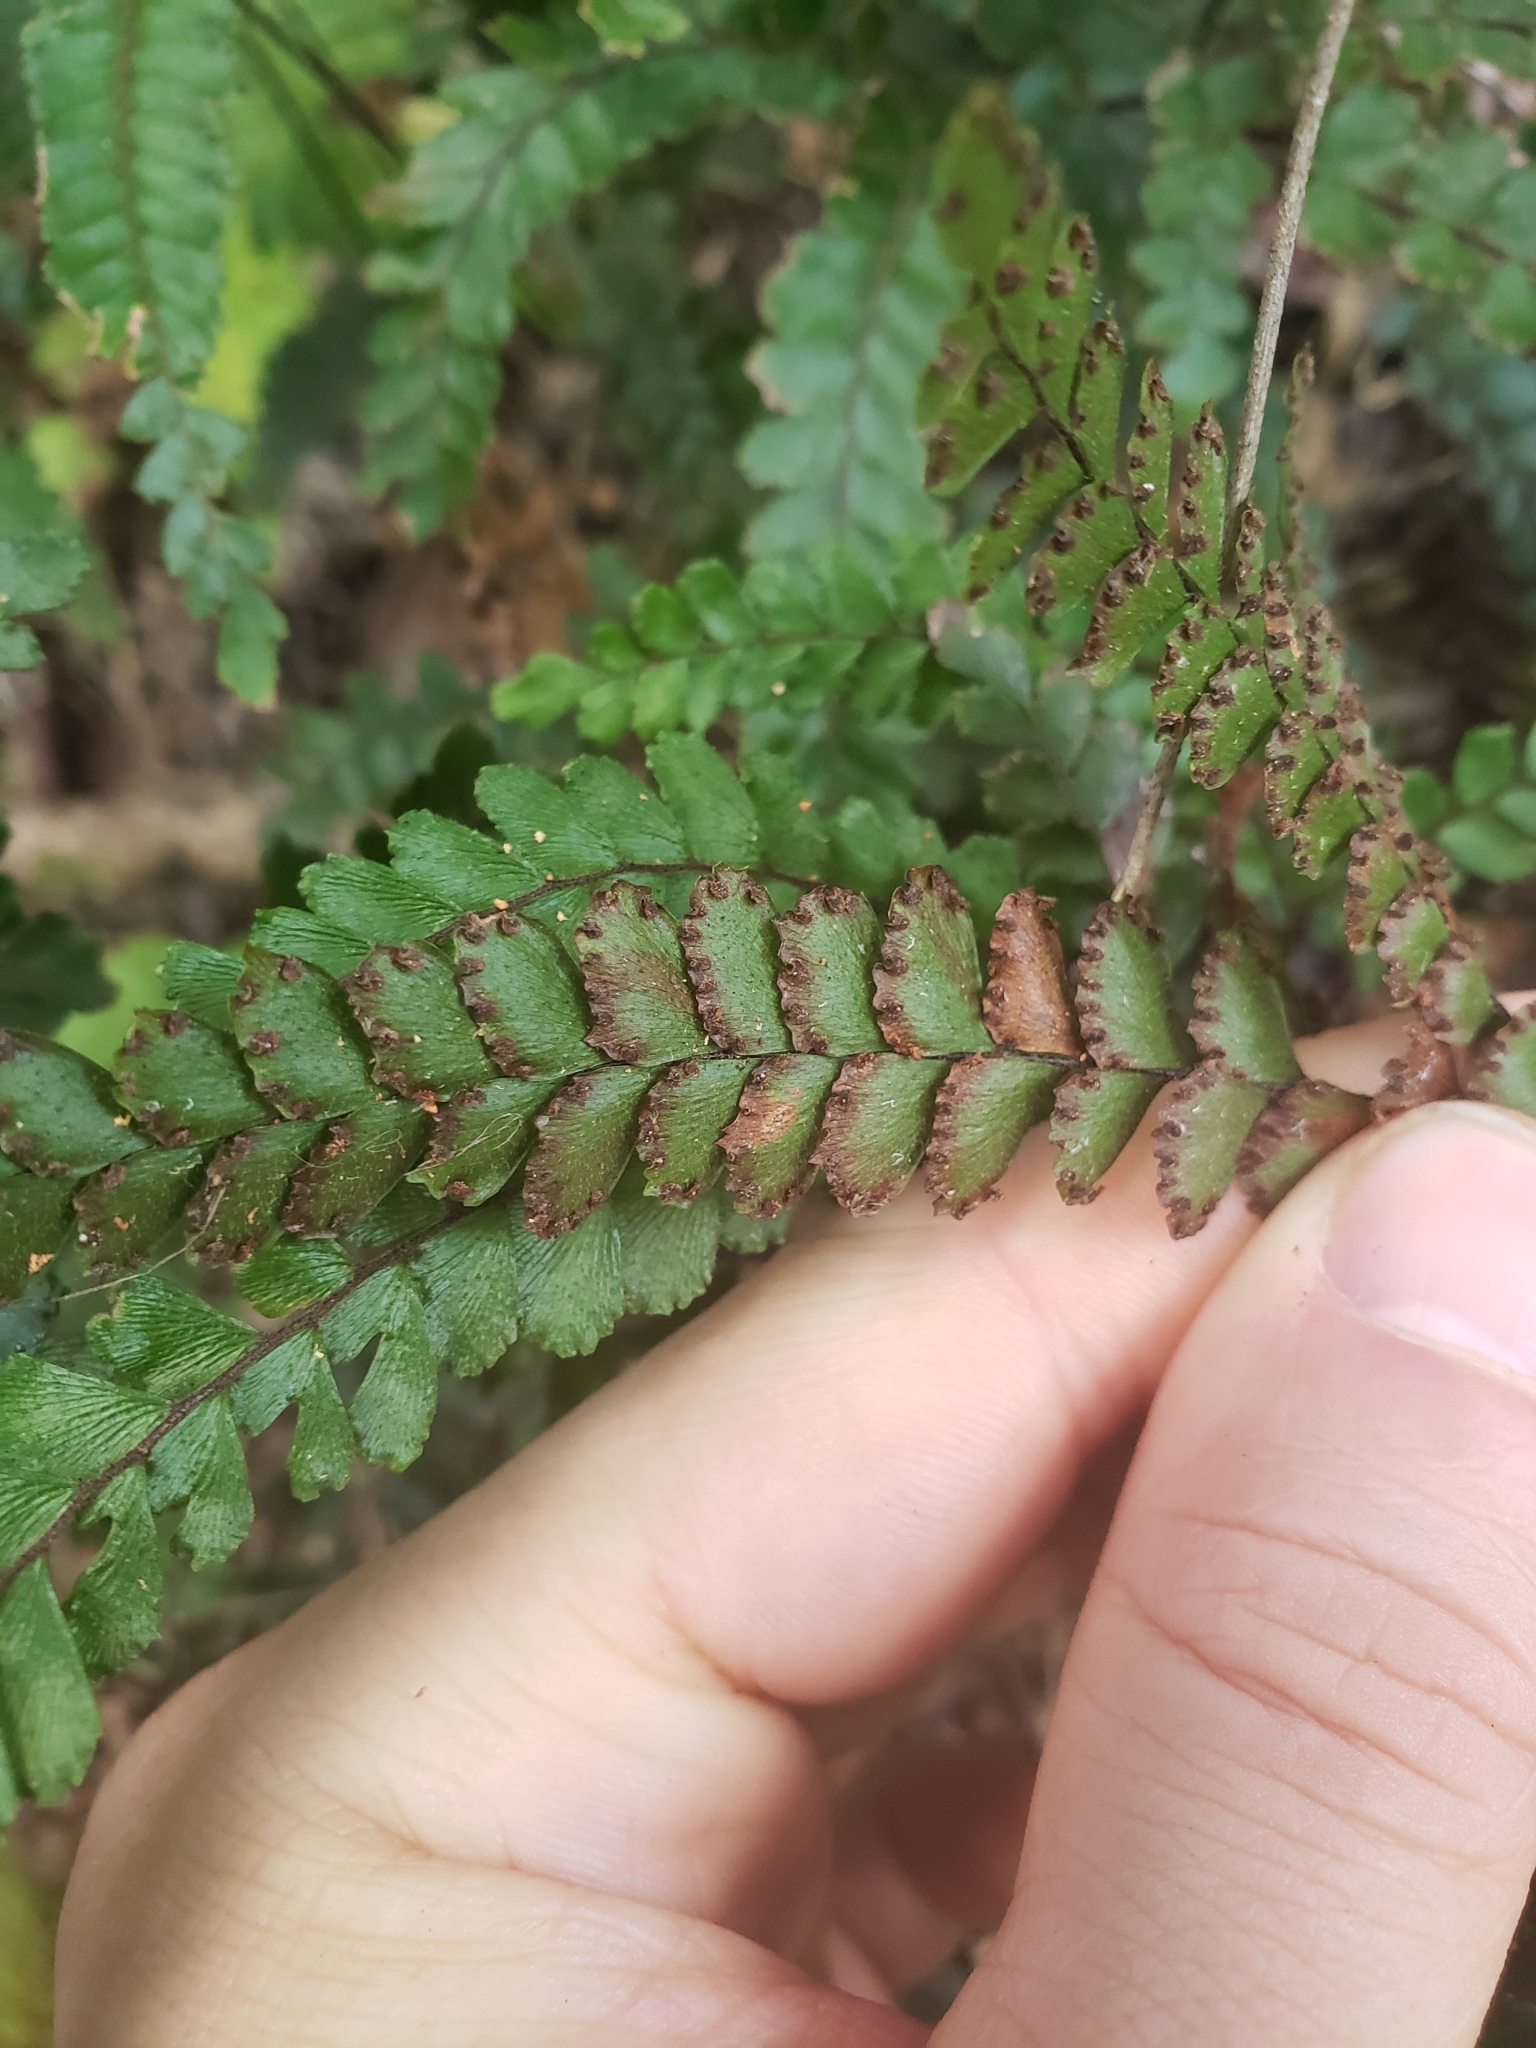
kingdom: Plantae
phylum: Tracheophyta
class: Polypodiopsida
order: Polypodiales
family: Pteridaceae
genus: Adiantum
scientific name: Adiantum hispidulum
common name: Rough maidenhair
